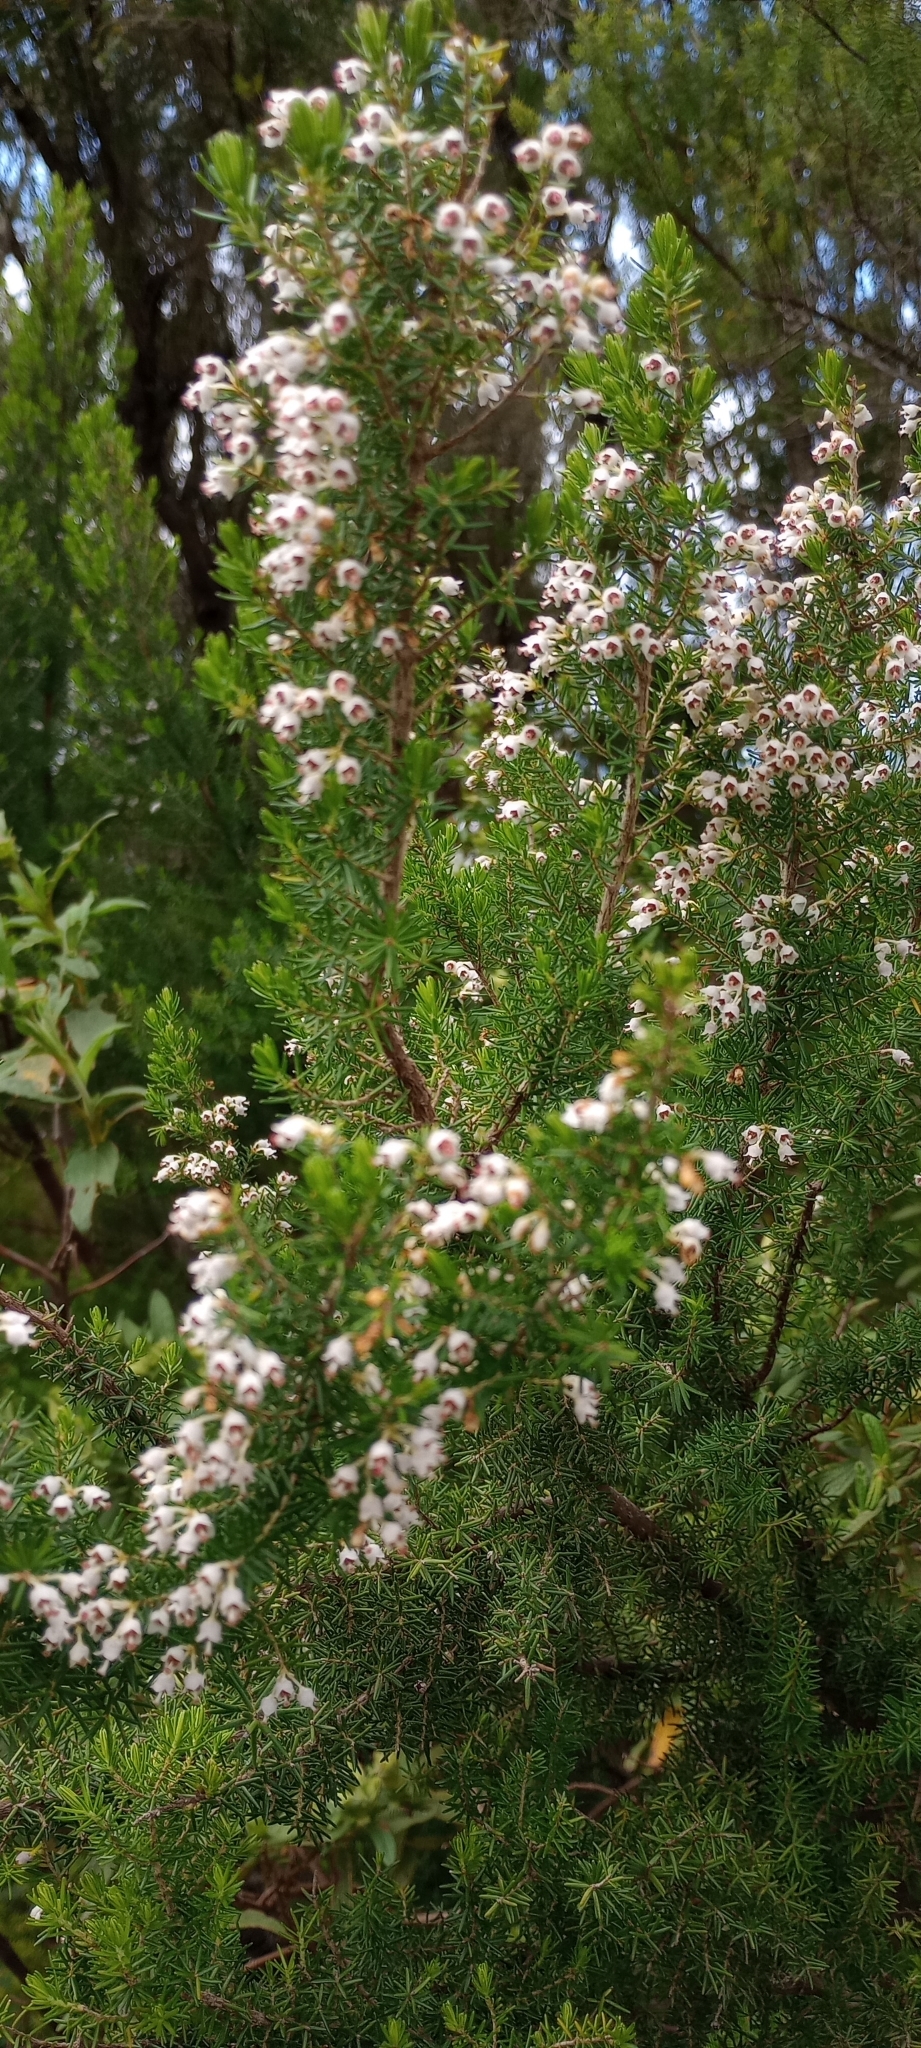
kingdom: Plantae
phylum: Tracheophyta
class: Magnoliopsida
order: Ericales
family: Ericaceae
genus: Erica
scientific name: Erica canariensis
